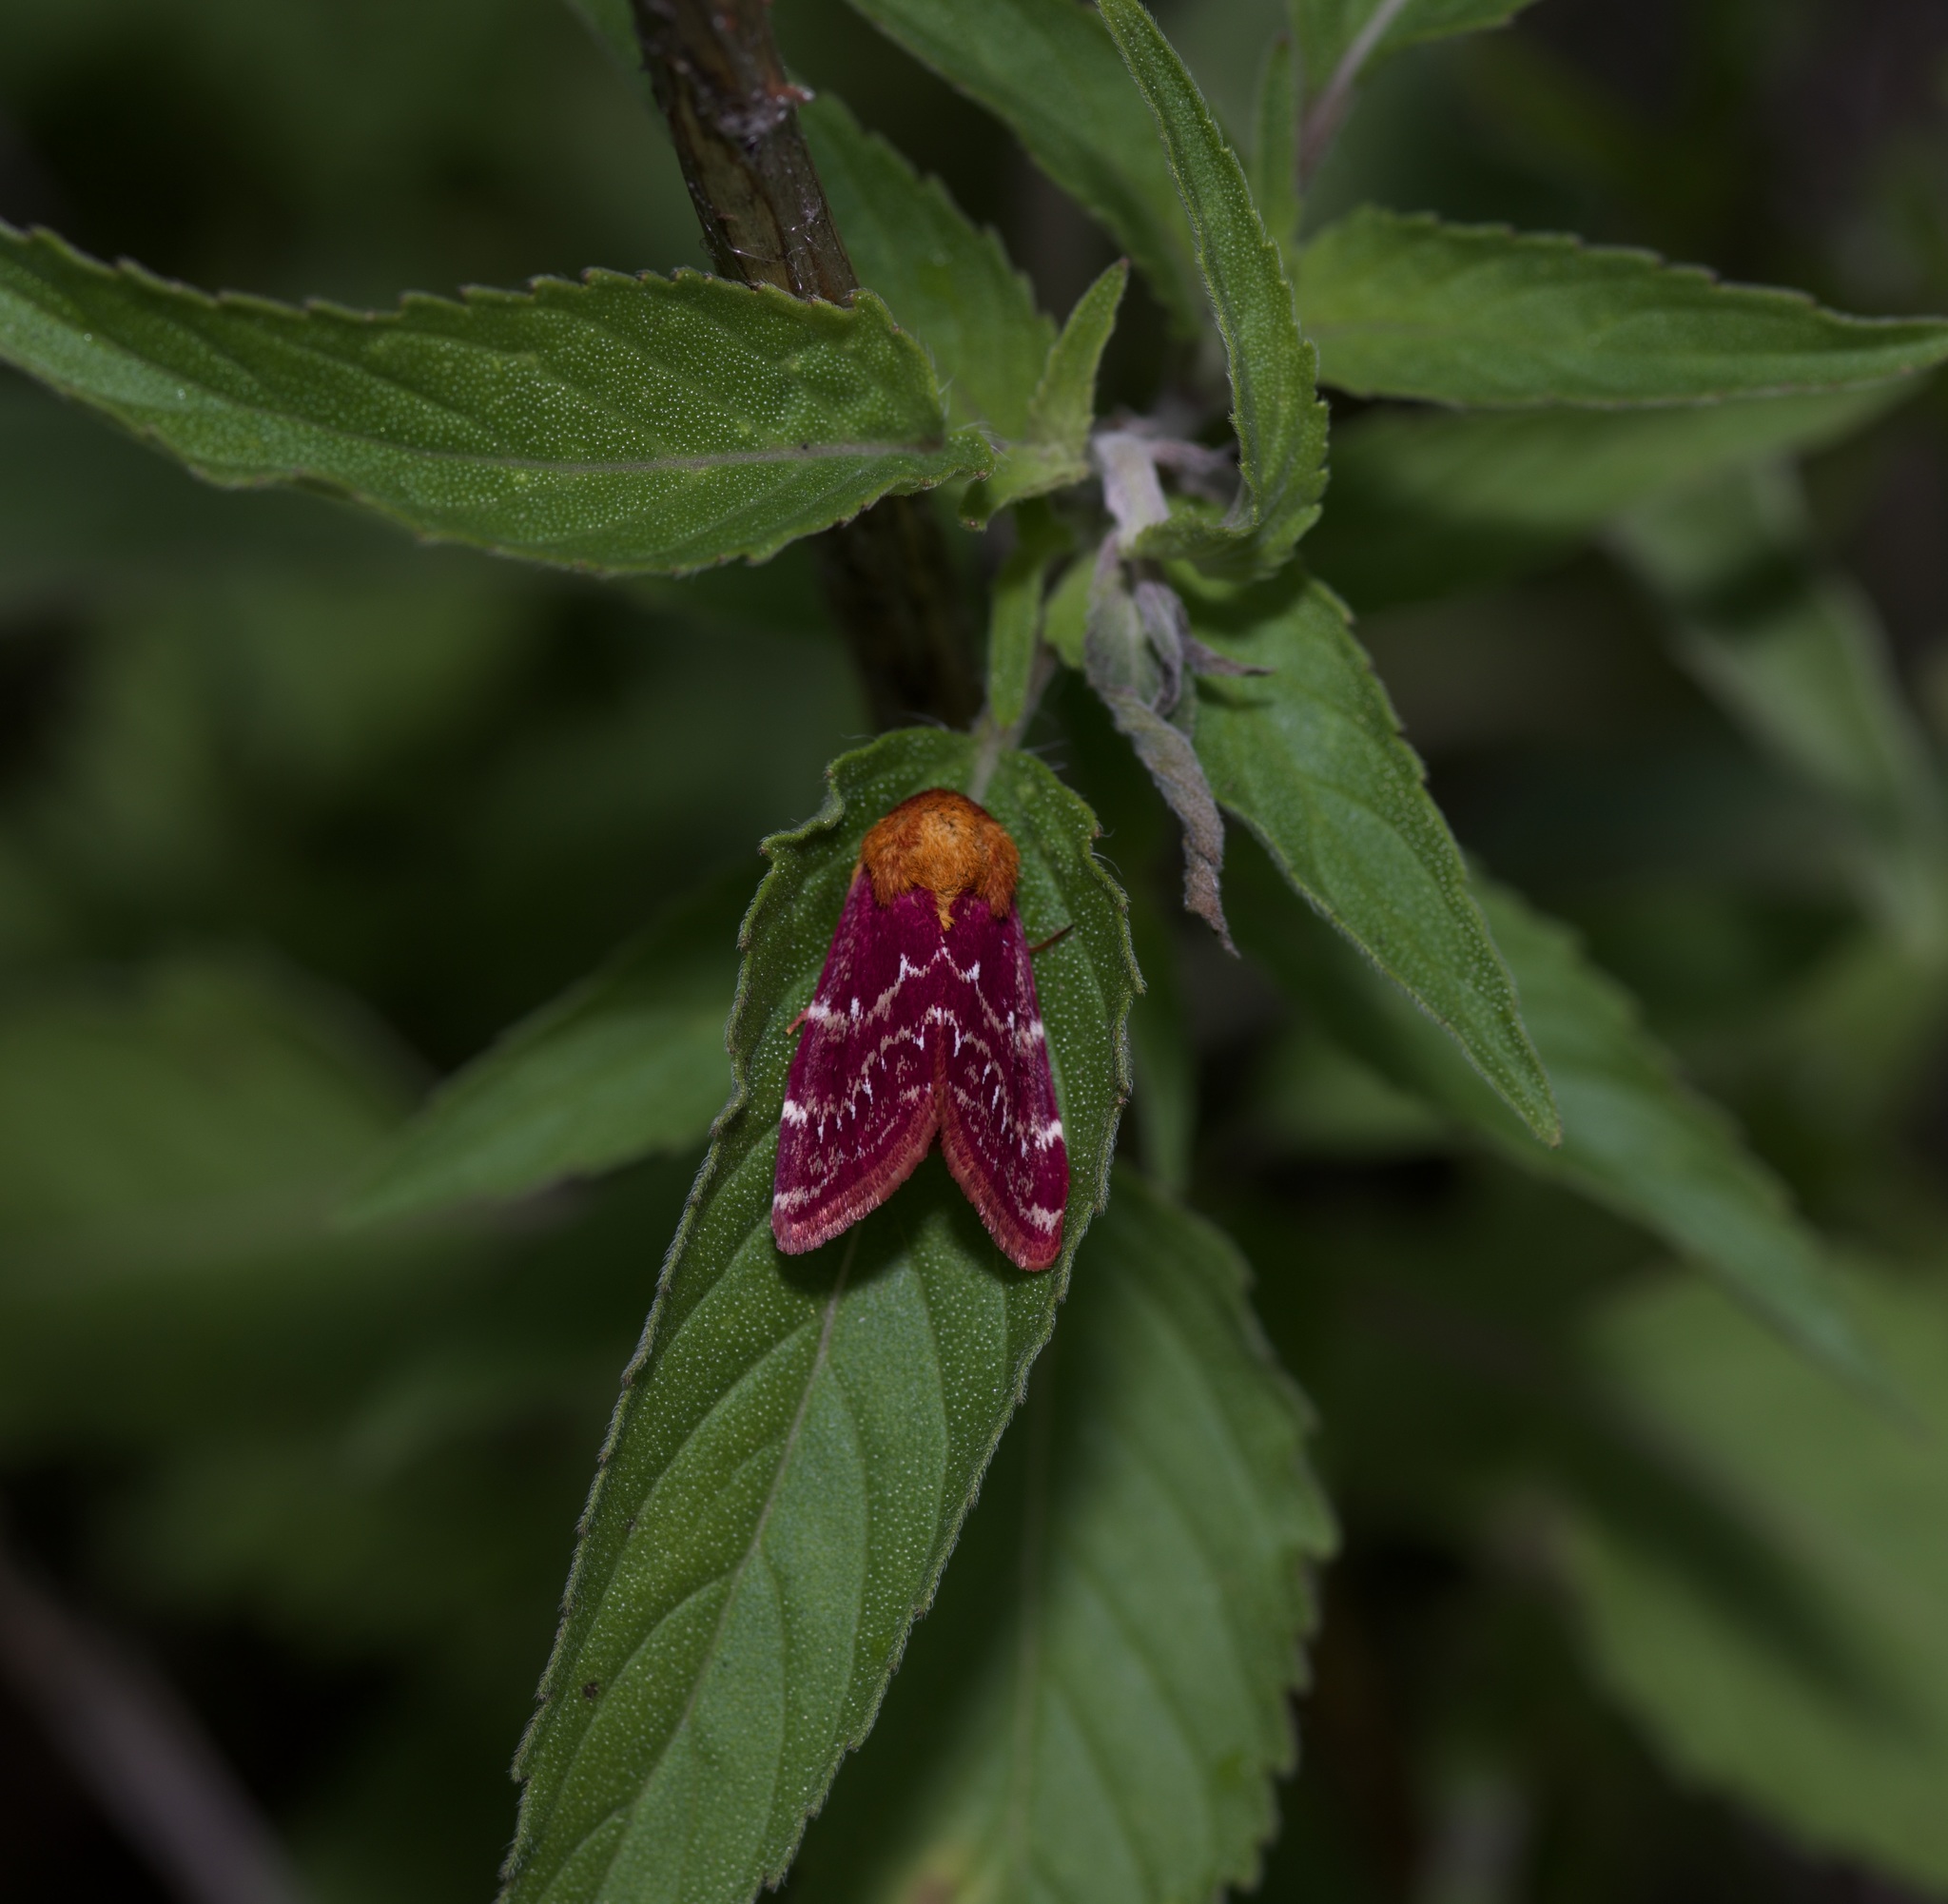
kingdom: Animalia
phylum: Arthropoda
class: Insecta
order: Lepidoptera
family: Noctuidae
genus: Schinia
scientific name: Schinia volupia
